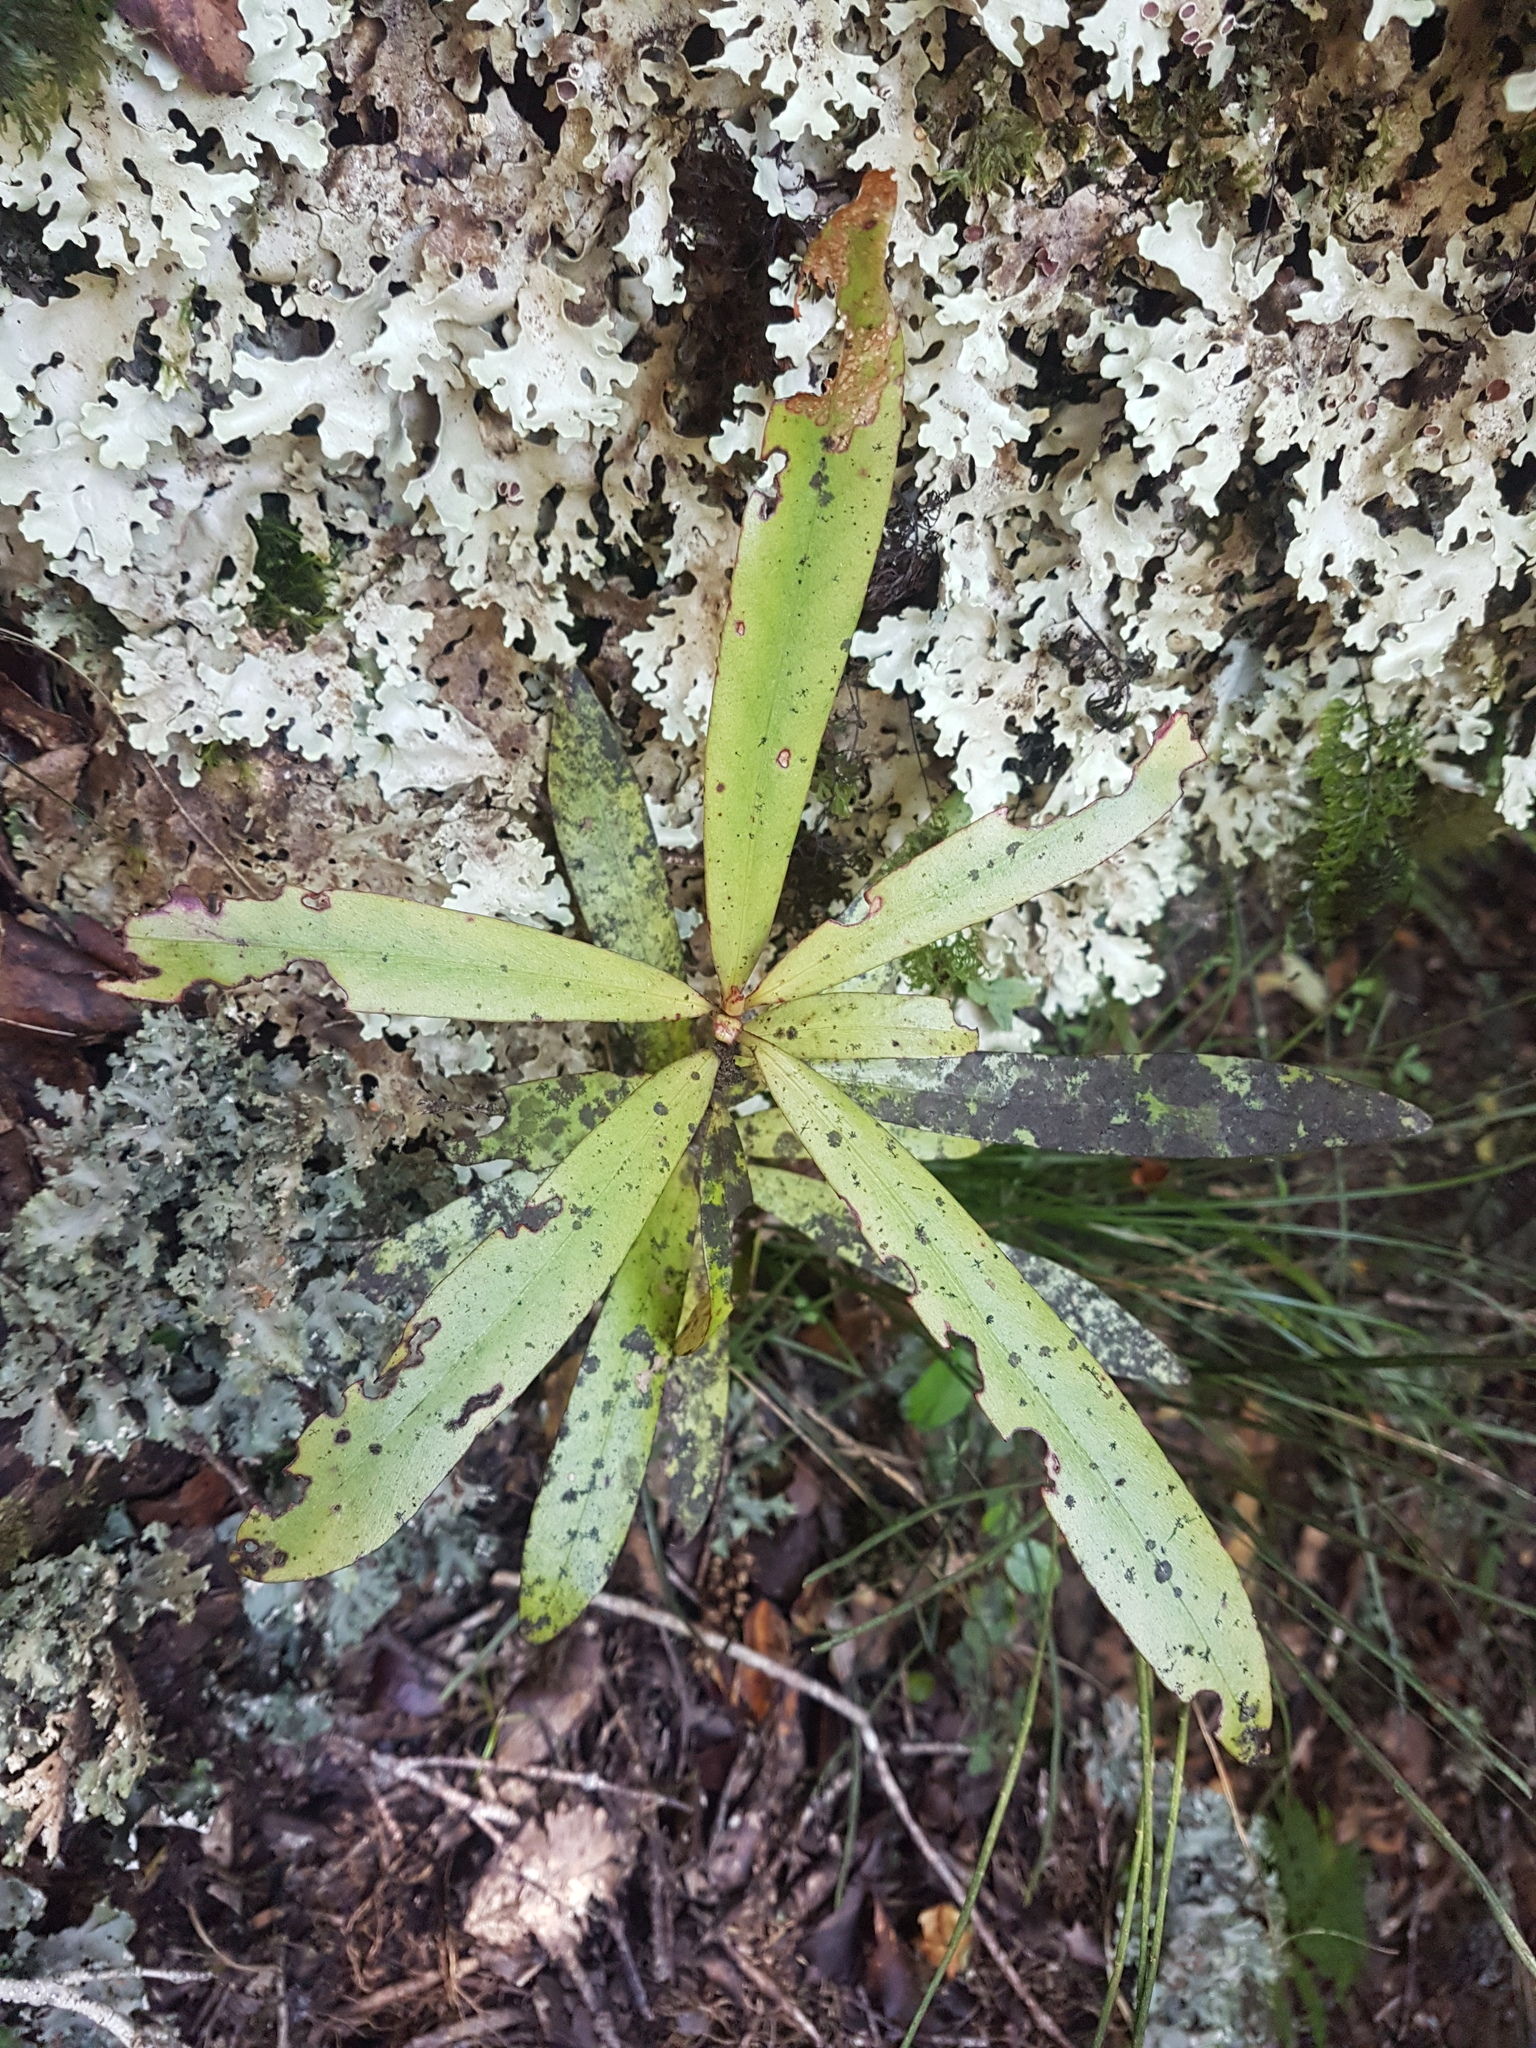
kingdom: Plantae
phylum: Tracheophyta
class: Magnoliopsida
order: Ericales
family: Primulaceae
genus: Myrsine
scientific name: Myrsine salicina
